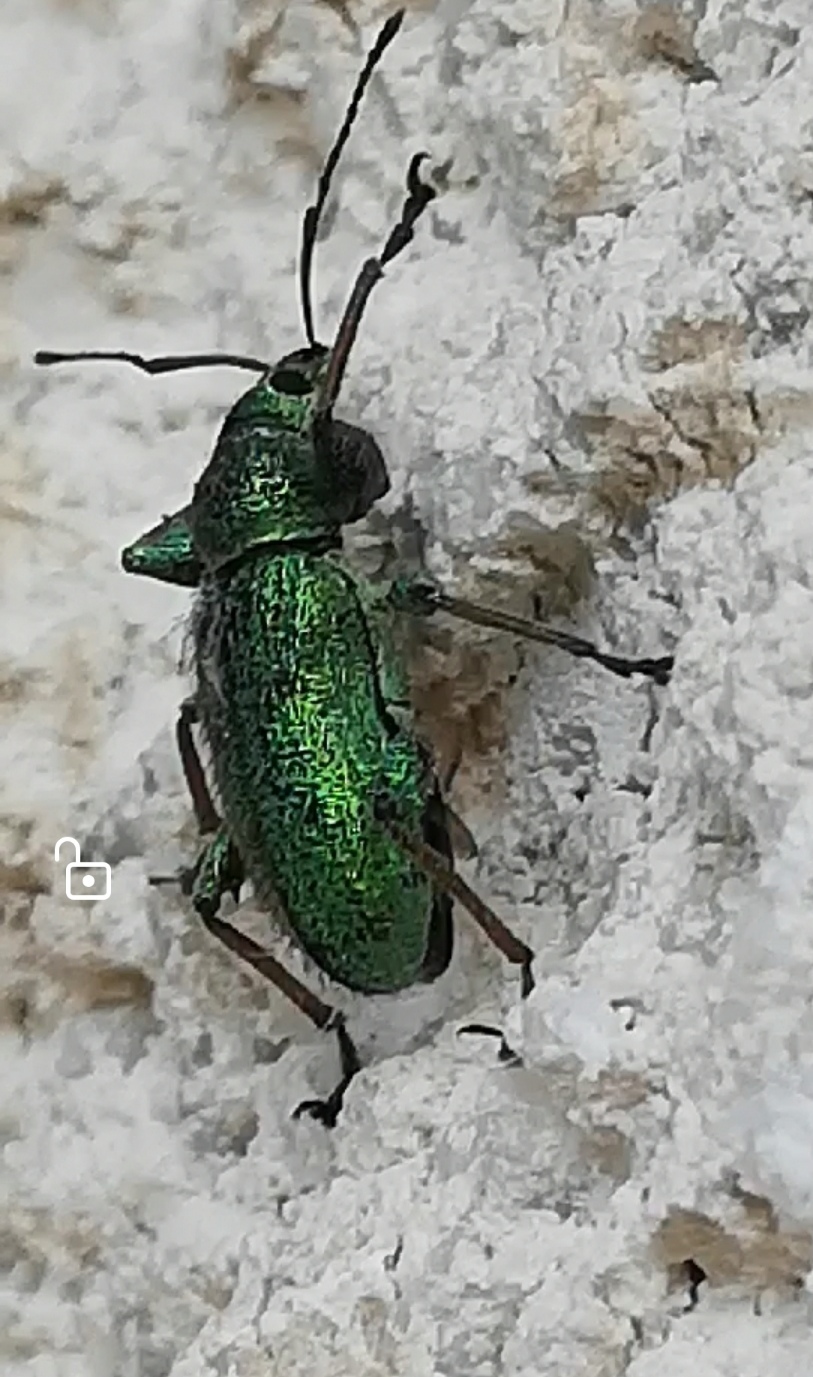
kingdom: Animalia
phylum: Arthropoda
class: Insecta
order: Coleoptera
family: Curculionidae
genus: Phyllobius
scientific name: Phyllobius arborator
